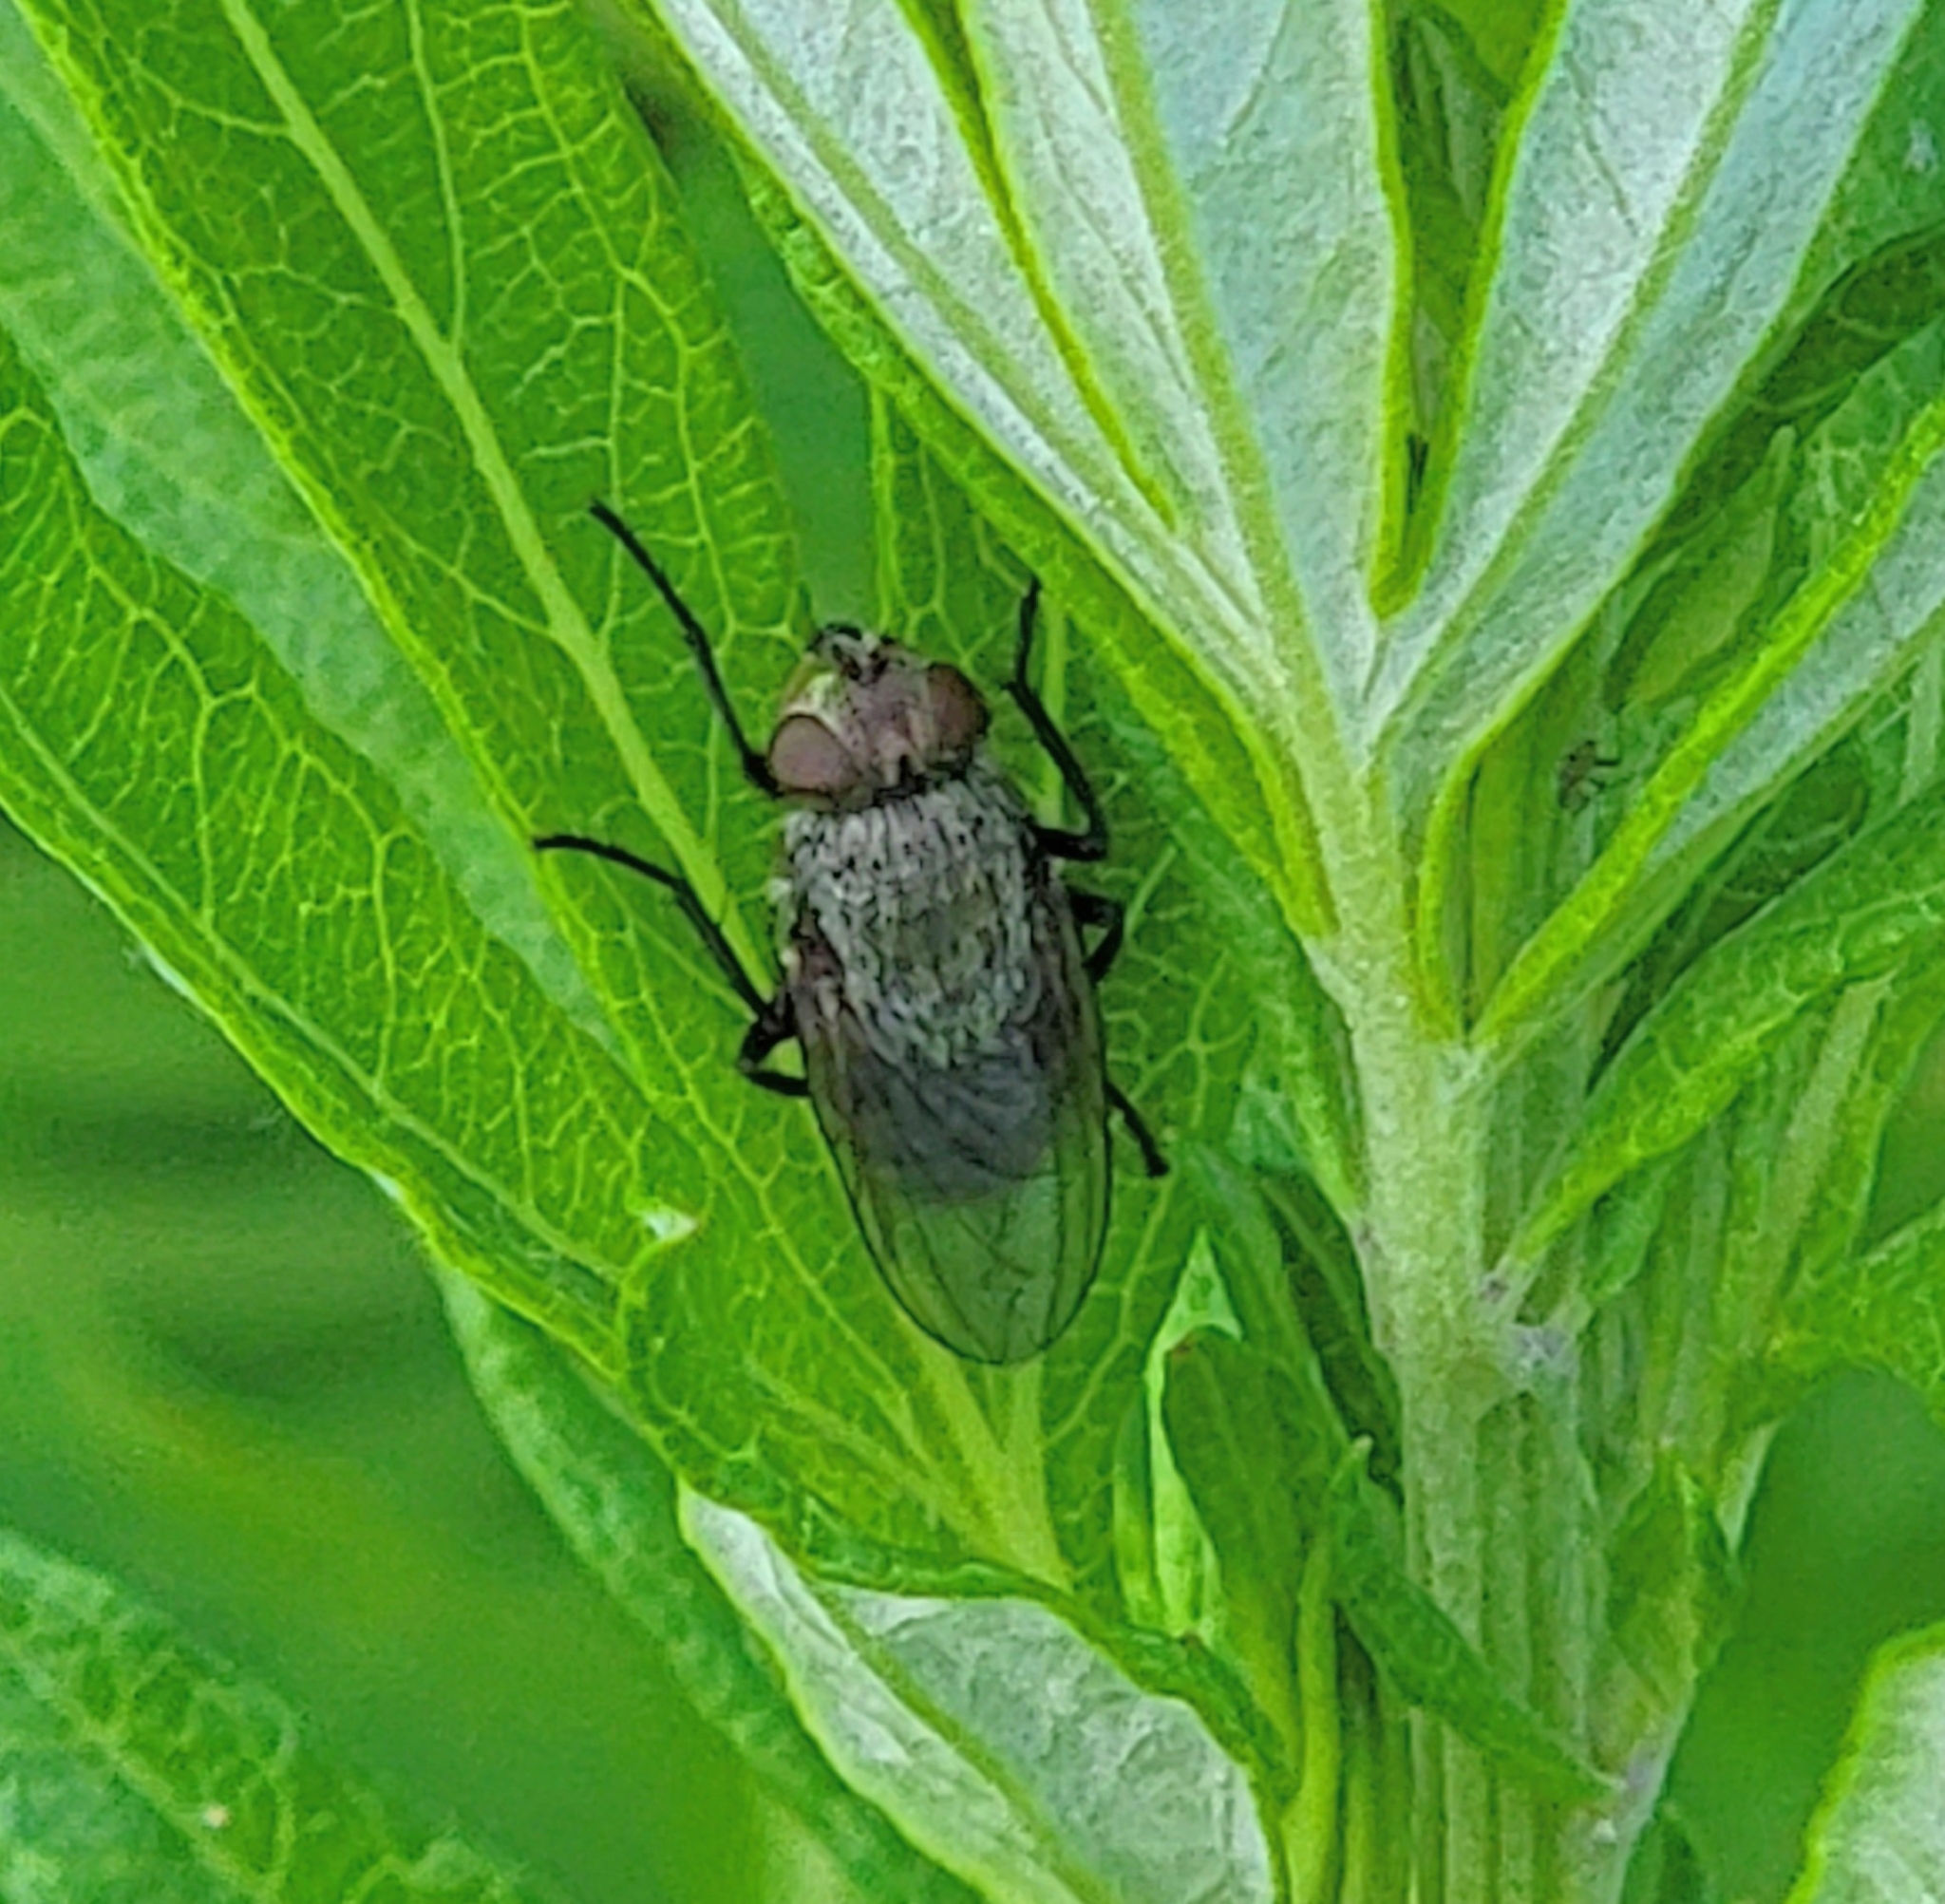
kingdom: Animalia
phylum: Arthropoda
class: Insecta
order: Diptera
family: Polleniidae
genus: Pollenia
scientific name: Pollenia
